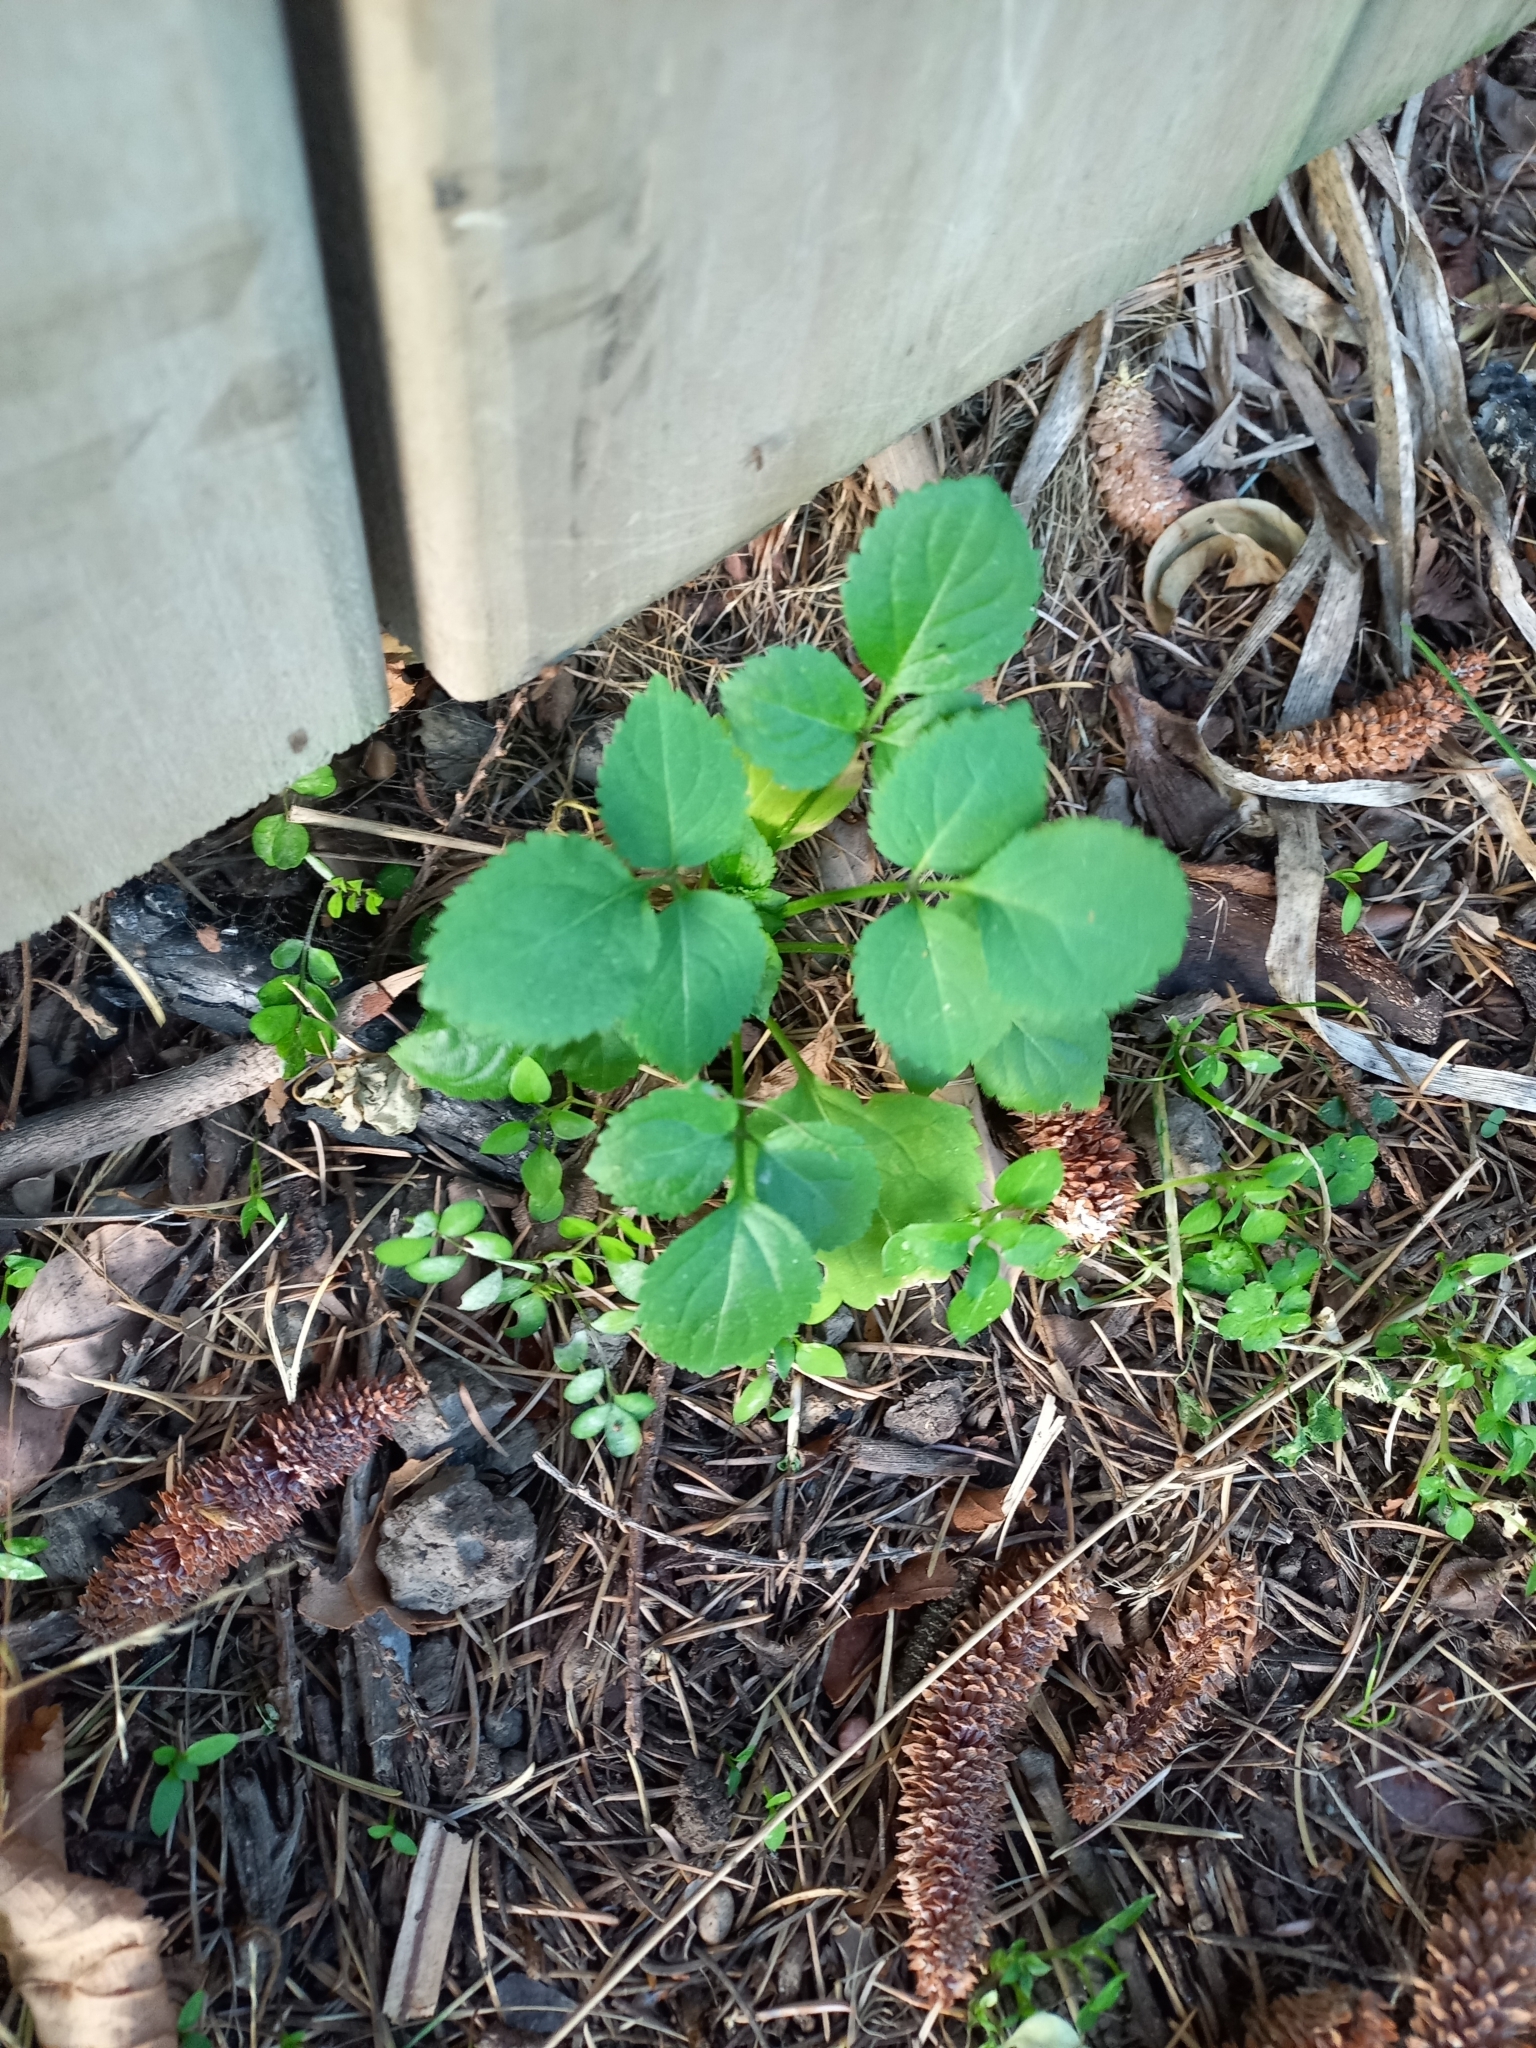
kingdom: Plantae
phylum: Tracheophyta
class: Magnoliopsida
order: Dipsacales
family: Viburnaceae
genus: Sambucus
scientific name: Sambucus nigra
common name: Elder
